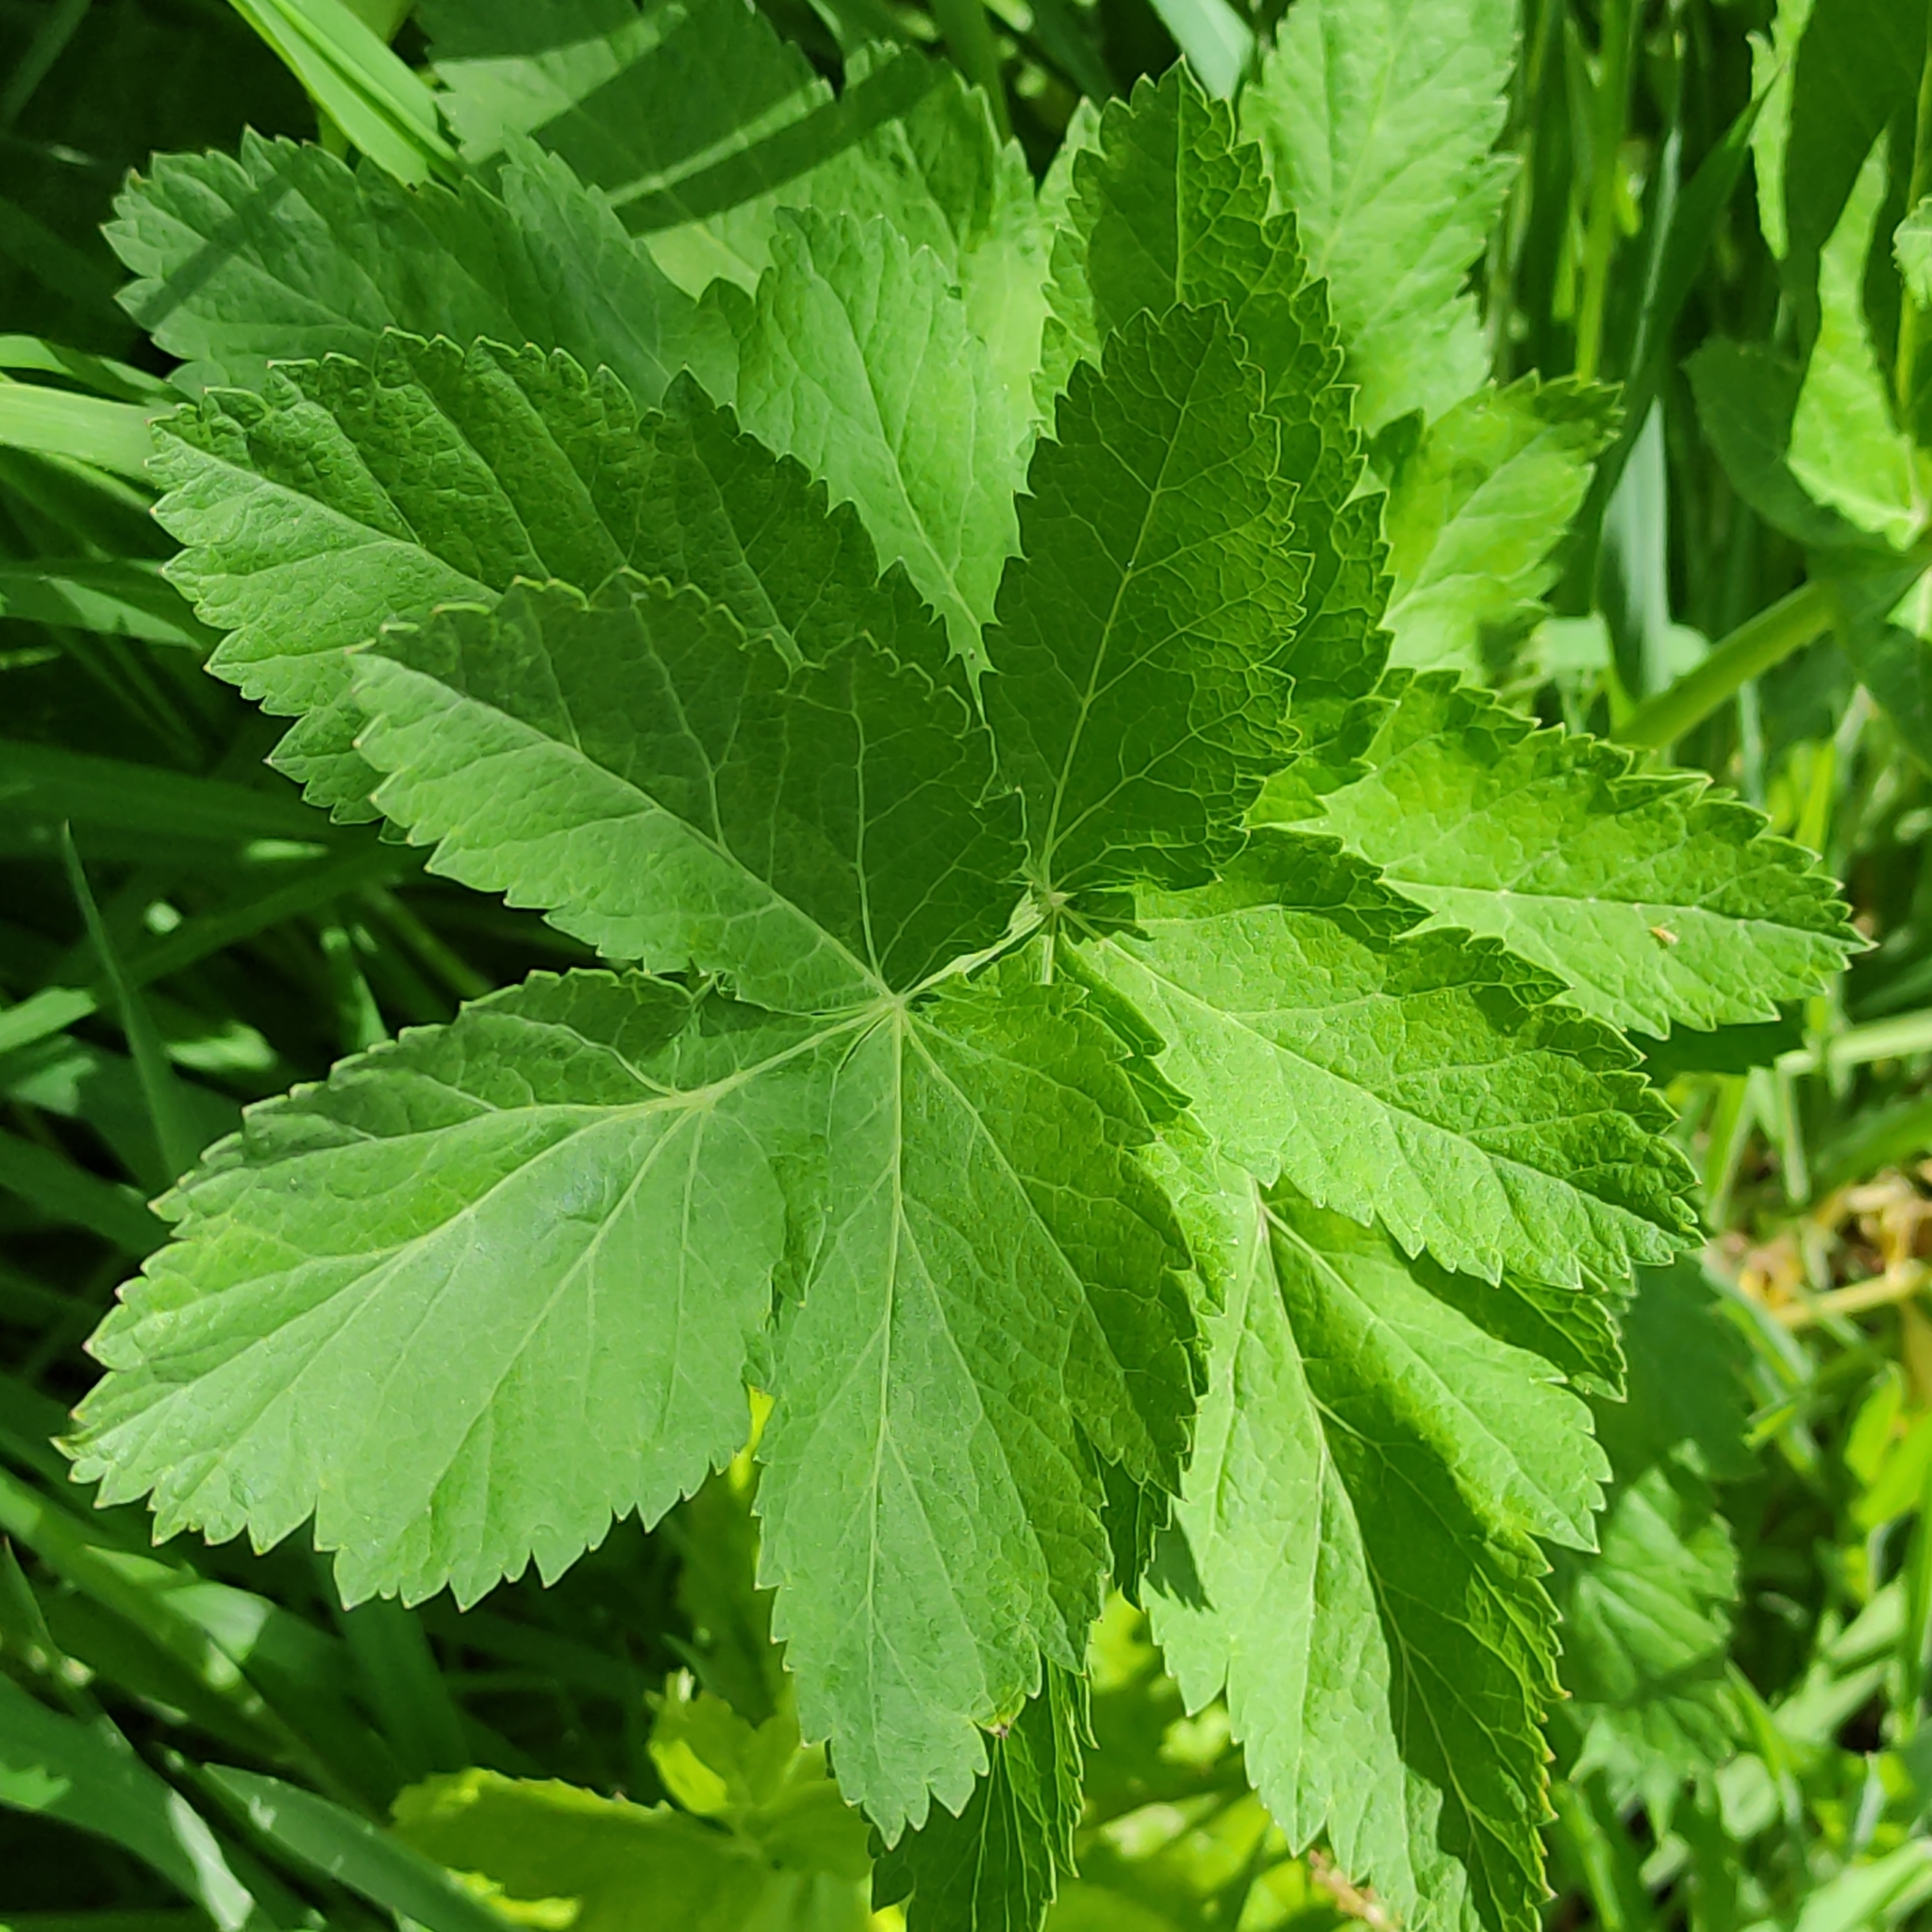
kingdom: Plantae
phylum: Tracheophyta
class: Magnoliopsida
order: Apiales
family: Apiaceae
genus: Pastinaca
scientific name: Pastinaca sativa
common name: Wild parsnip
